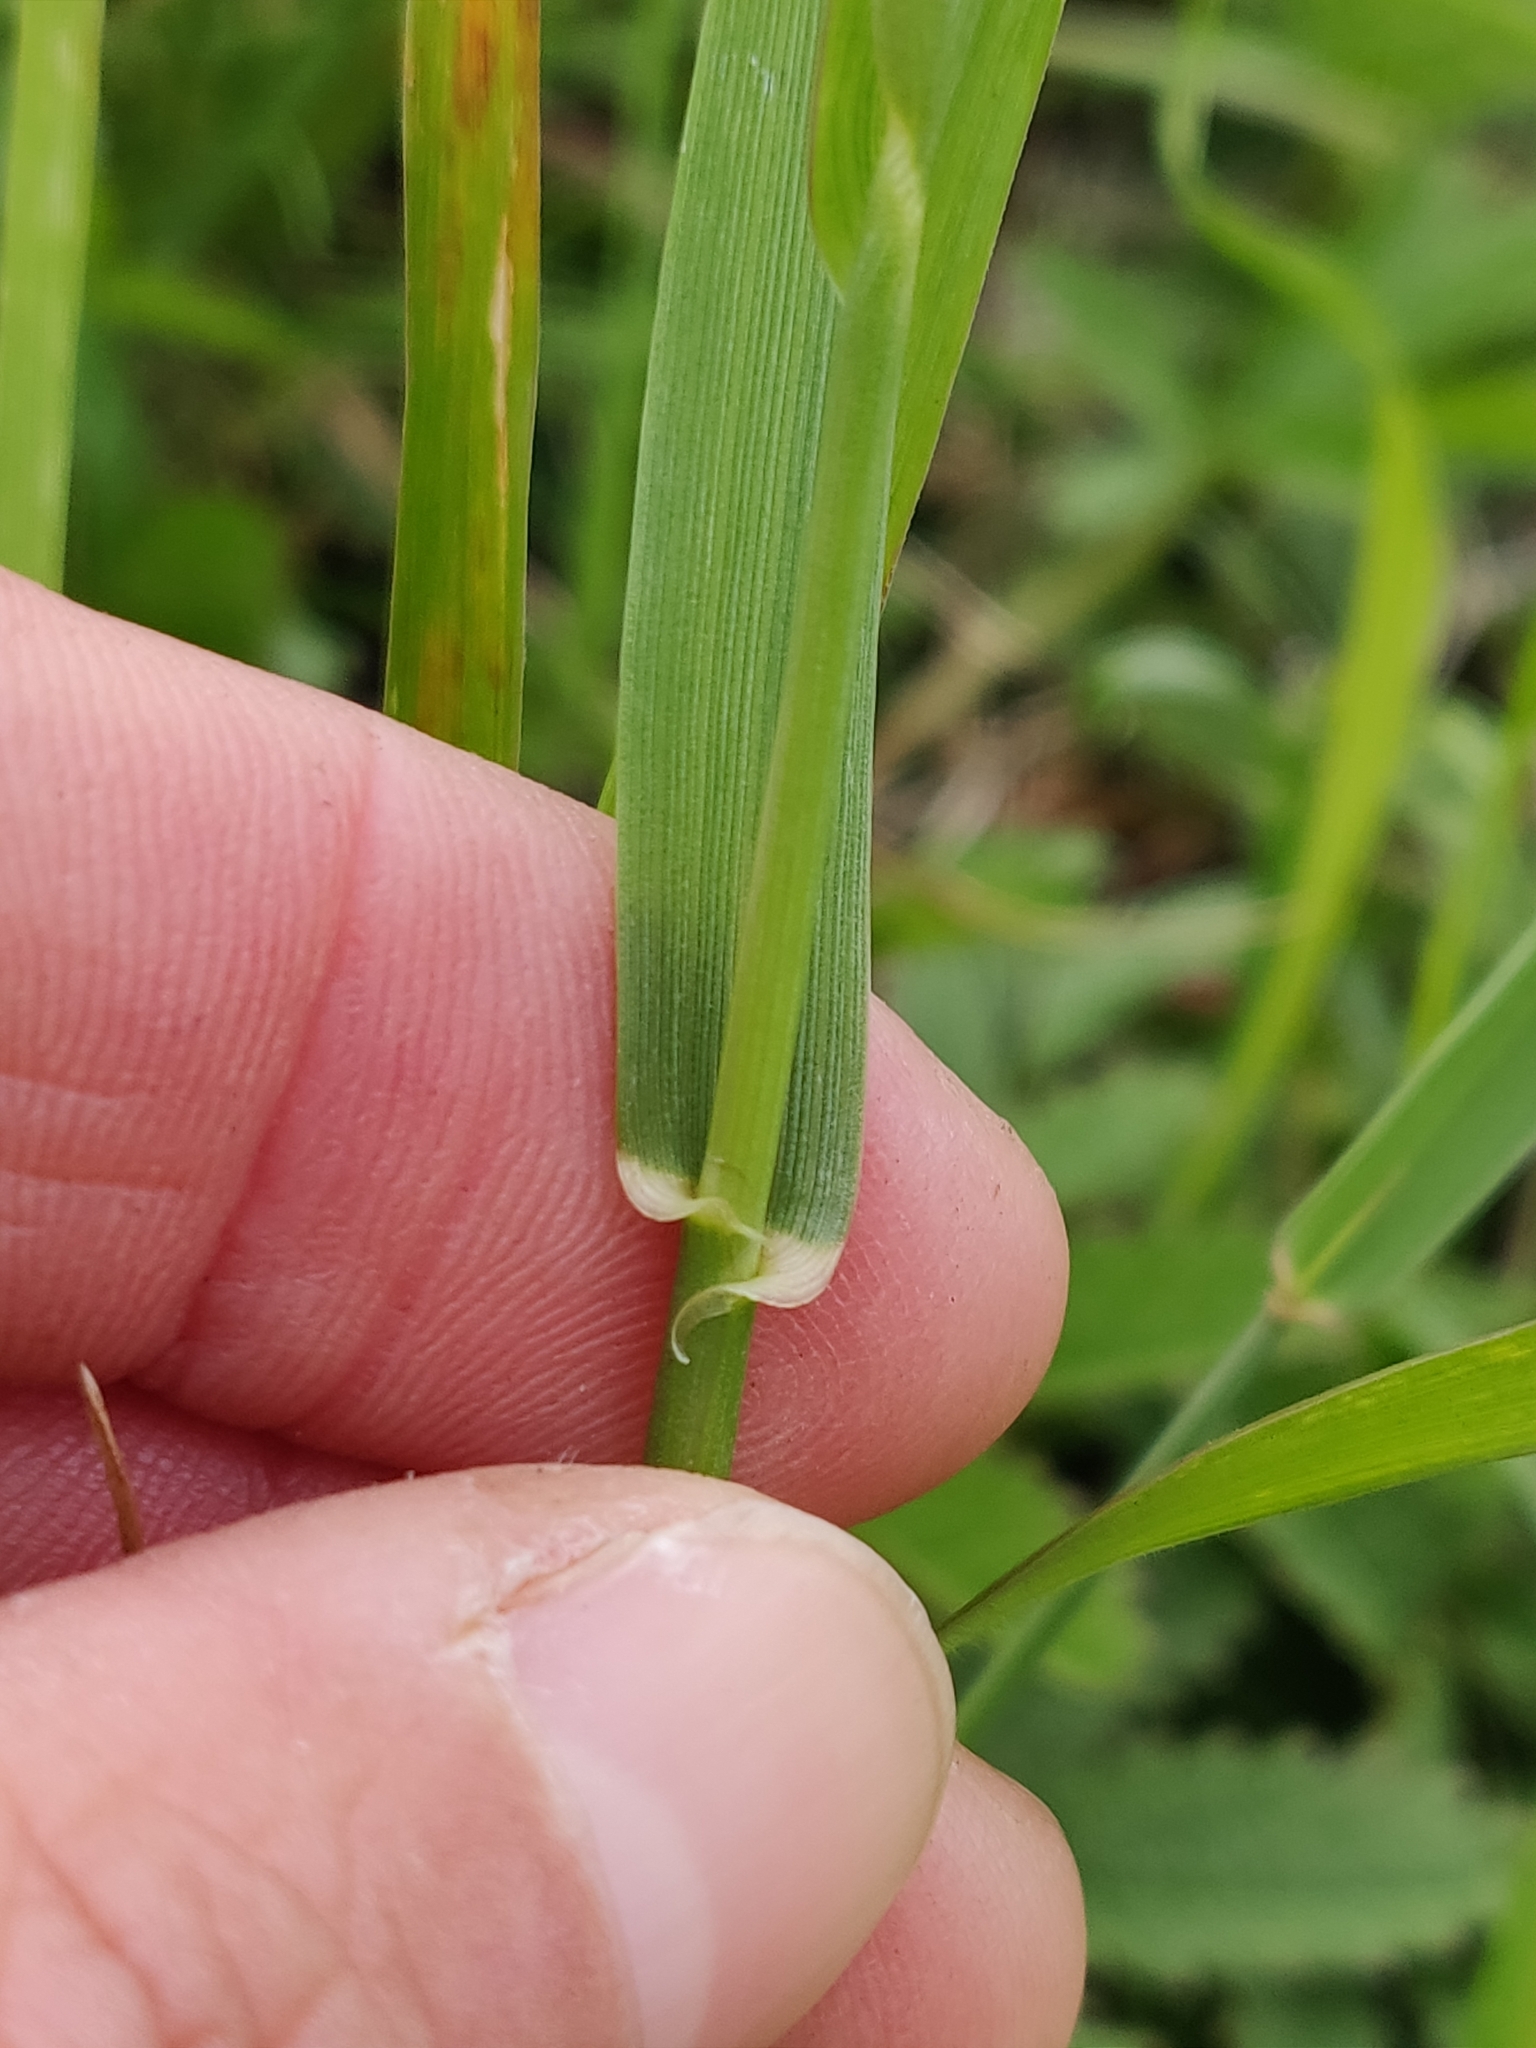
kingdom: Plantae
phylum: Tracheophyta
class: Liliopsida
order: Poales
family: Poaceae
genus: Lolium
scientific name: Lolium pratense
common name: Dover grass
